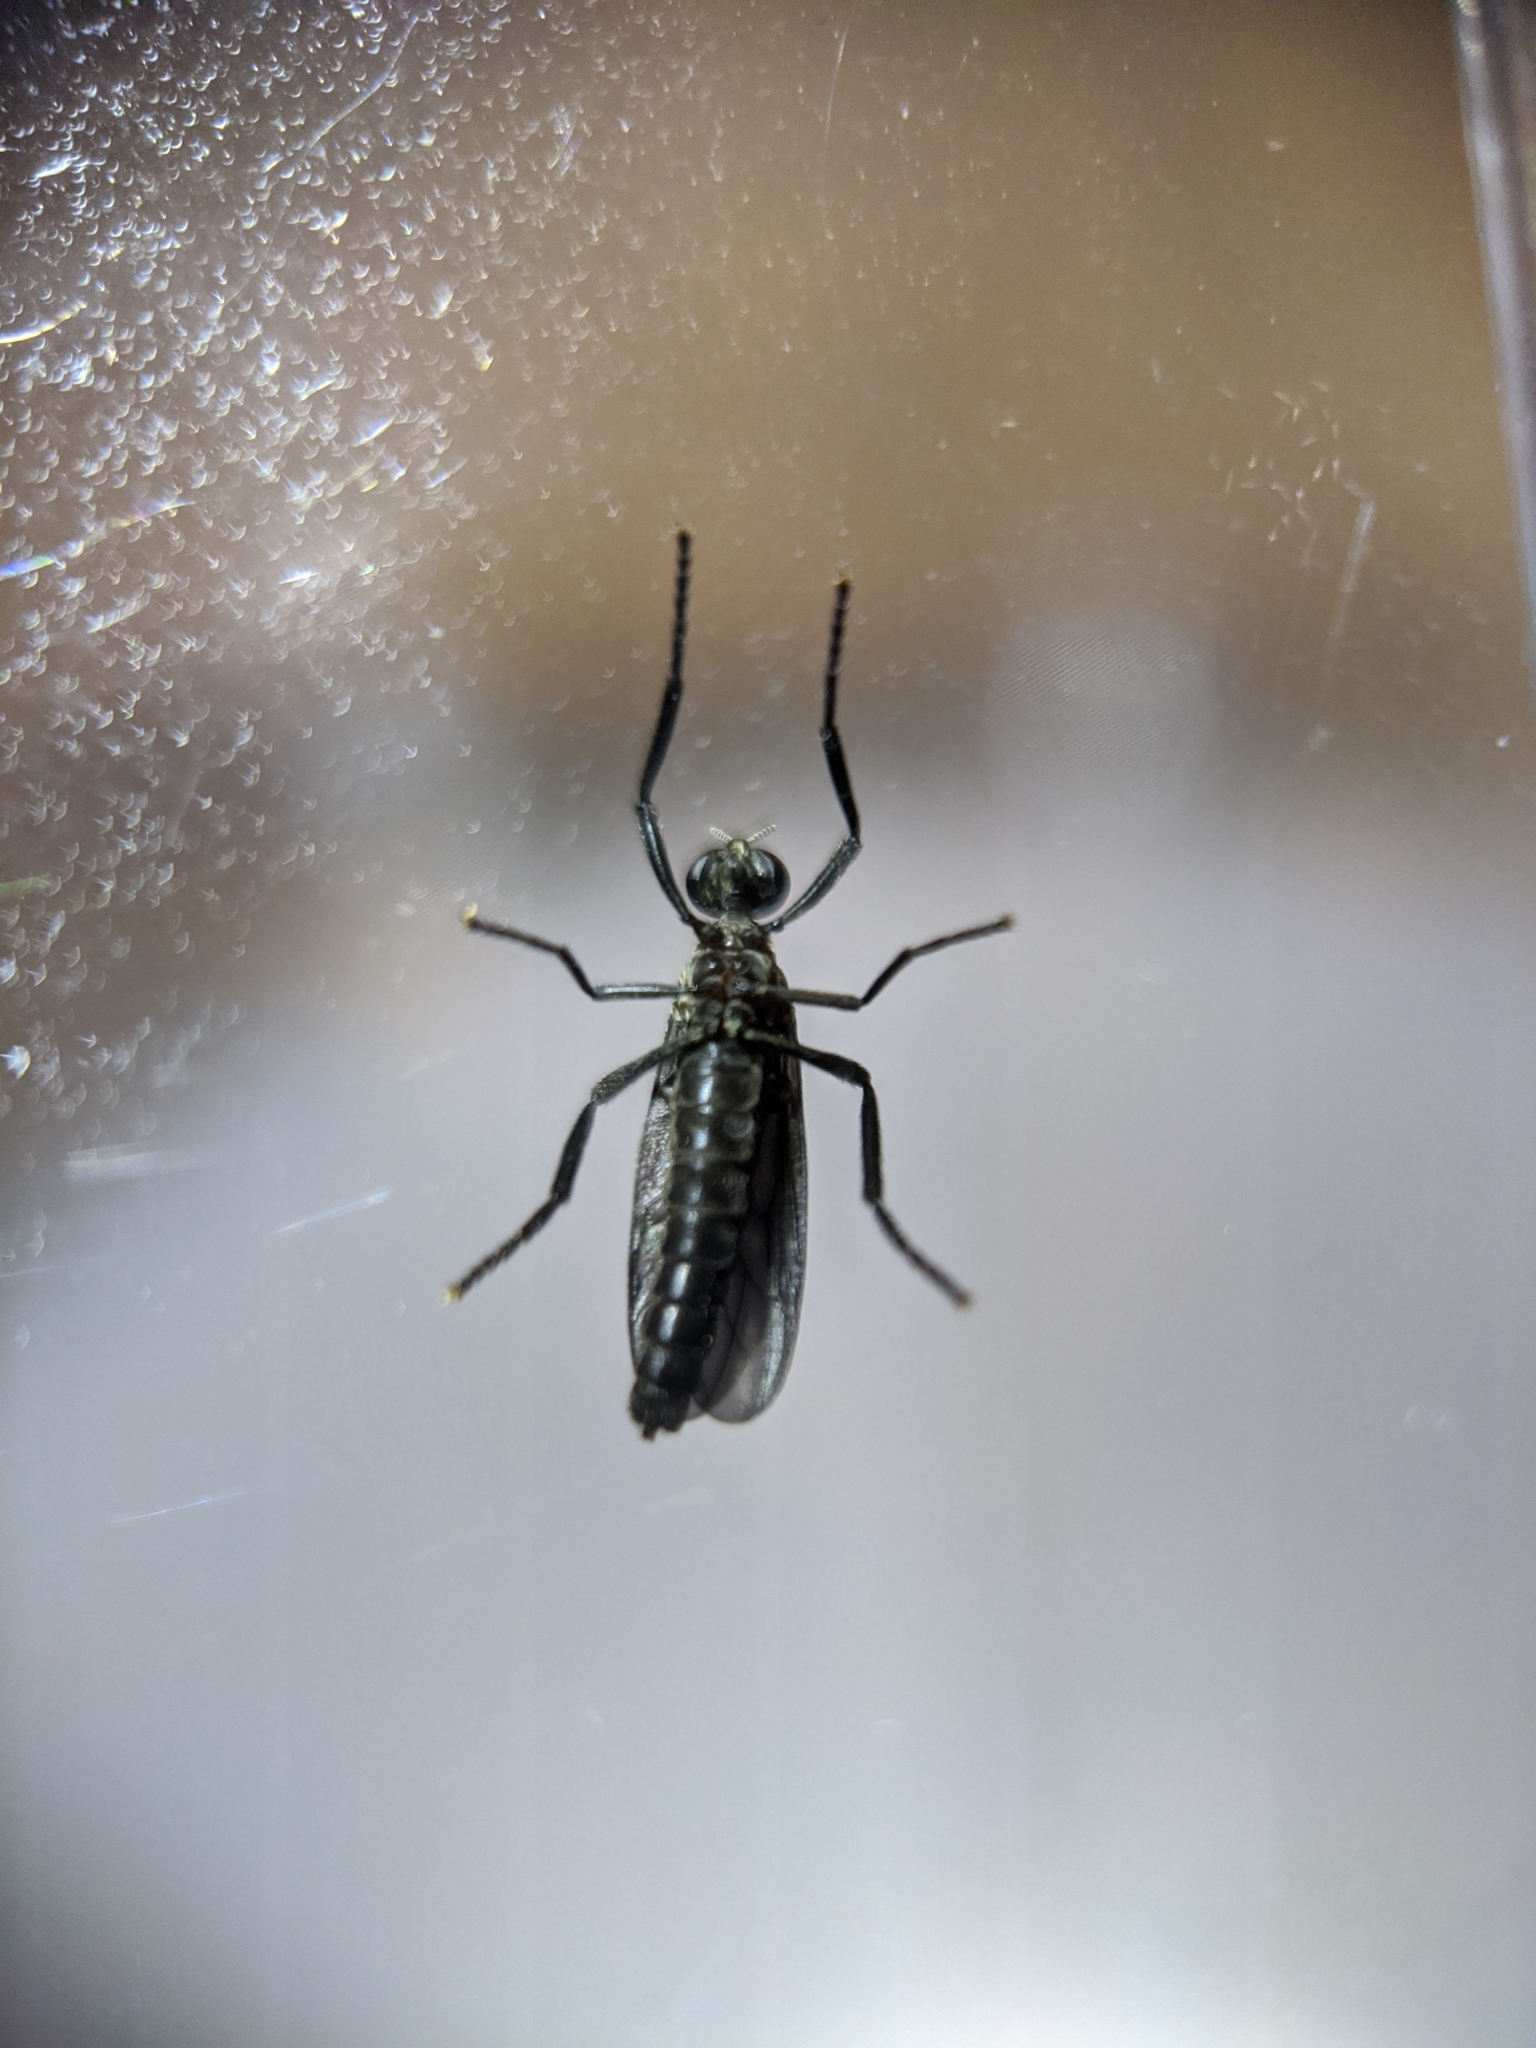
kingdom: Animalia
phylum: Arthropoda
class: Insecta
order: Diptera
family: Bibionidae
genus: Plecia
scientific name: Plecia nearctica
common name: March fly
